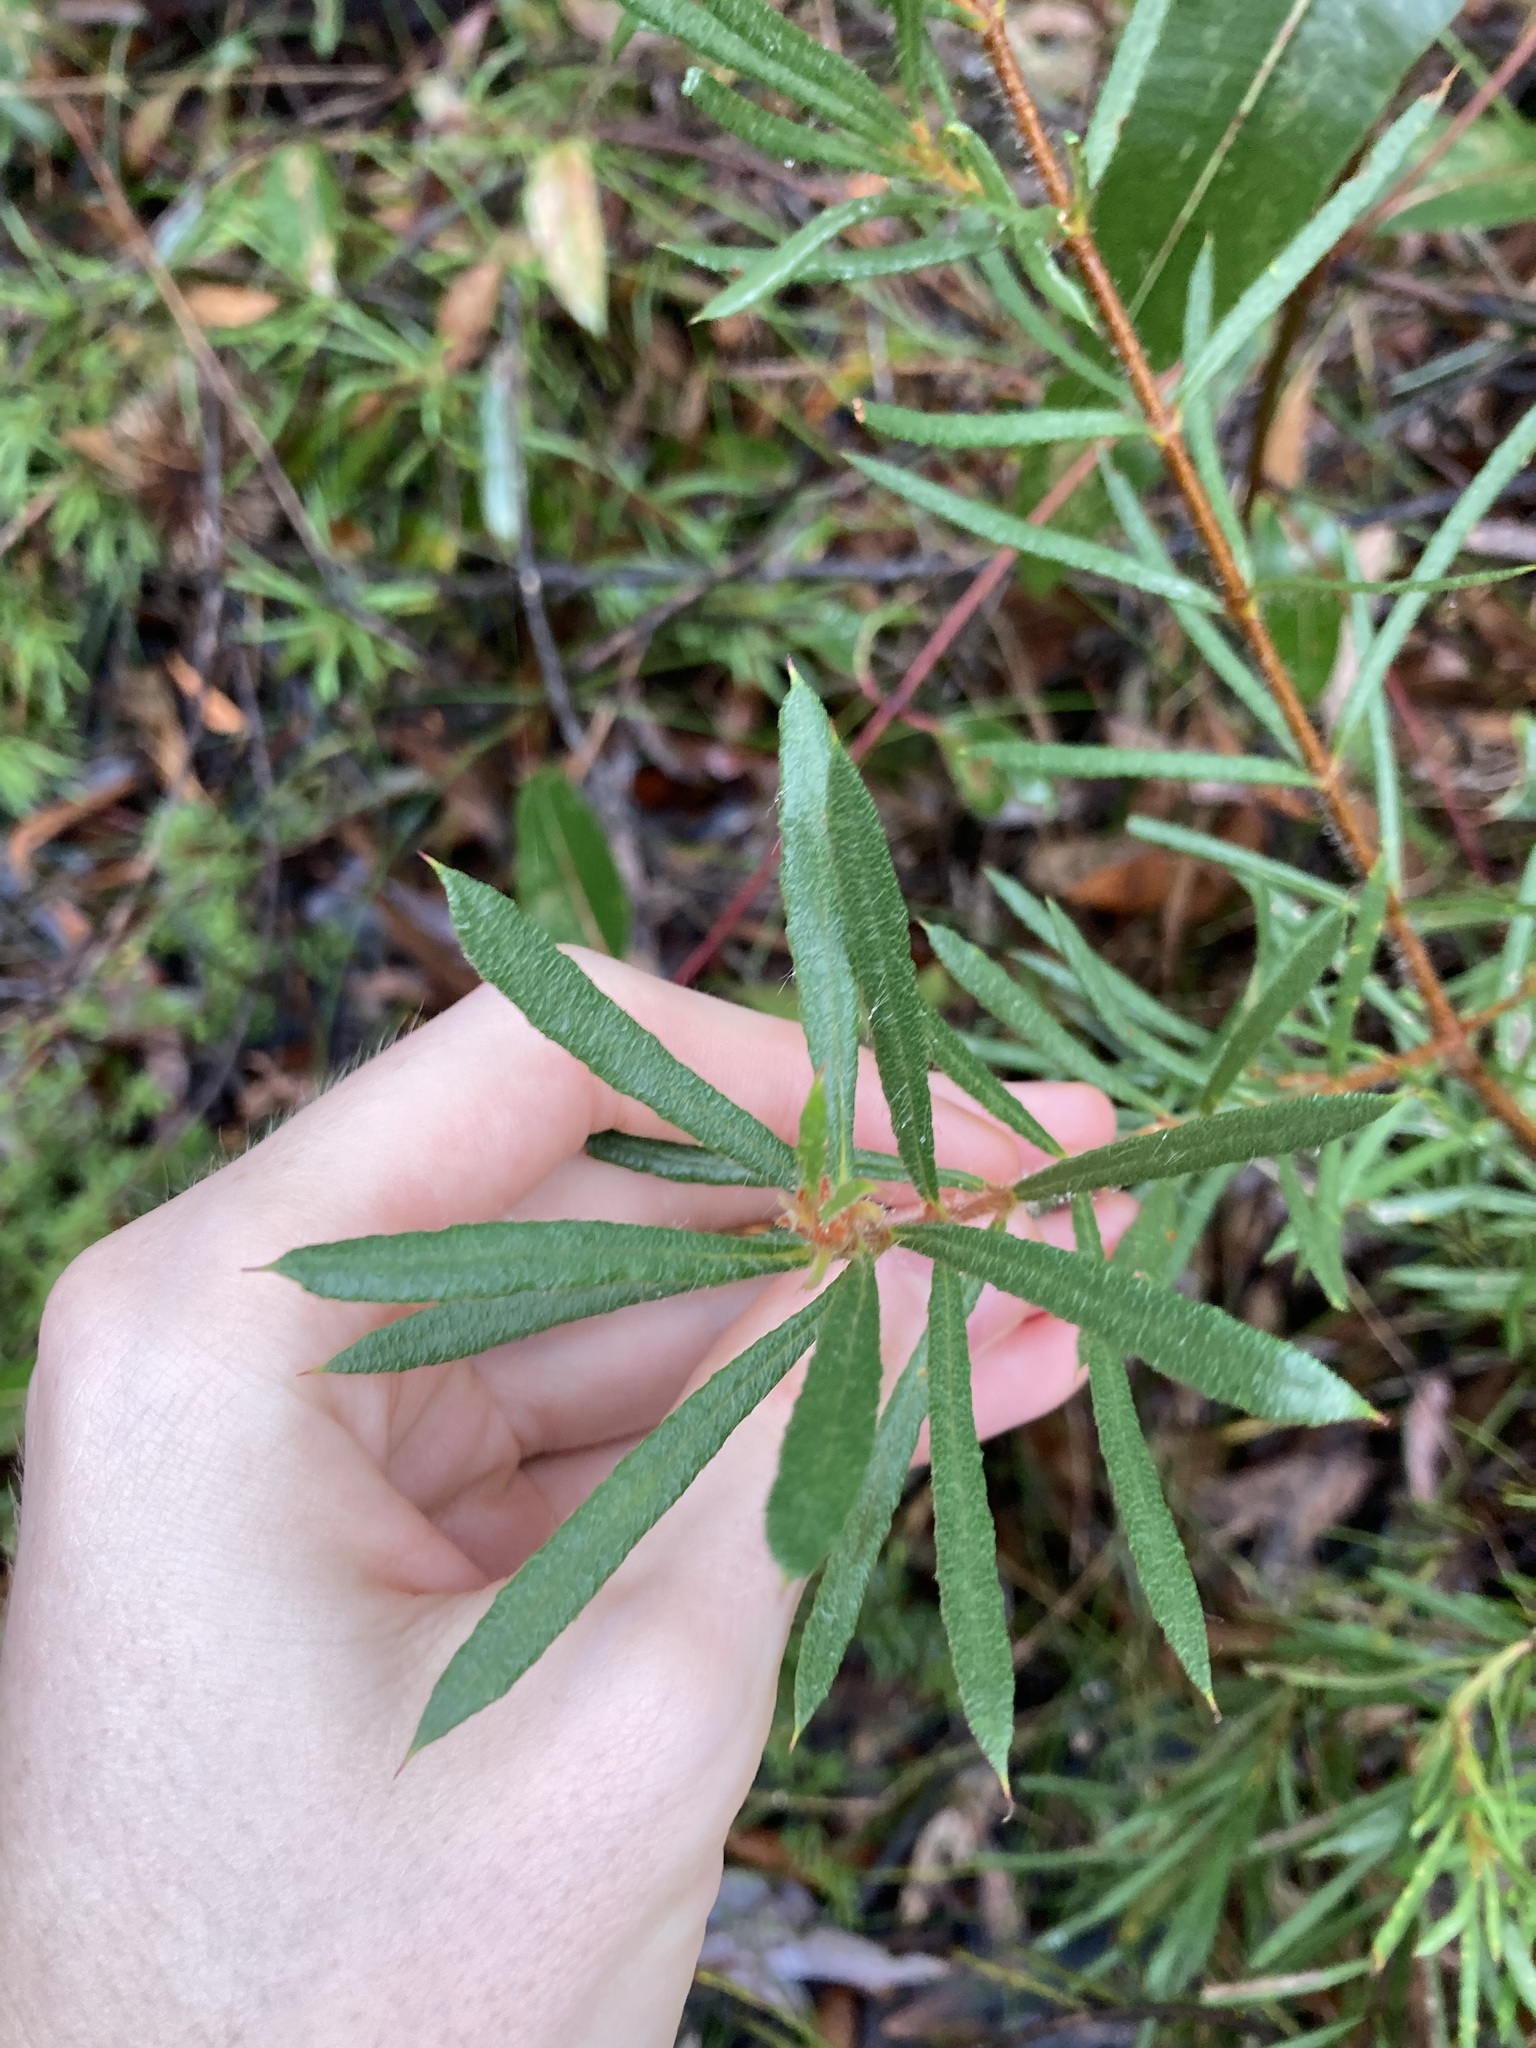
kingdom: Plantae
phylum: Tracheophyta
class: Magnoliopsida
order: Proteales
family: Proteaceae
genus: Lambertia
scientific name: Lambertia formosa
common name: Mountain-devil
